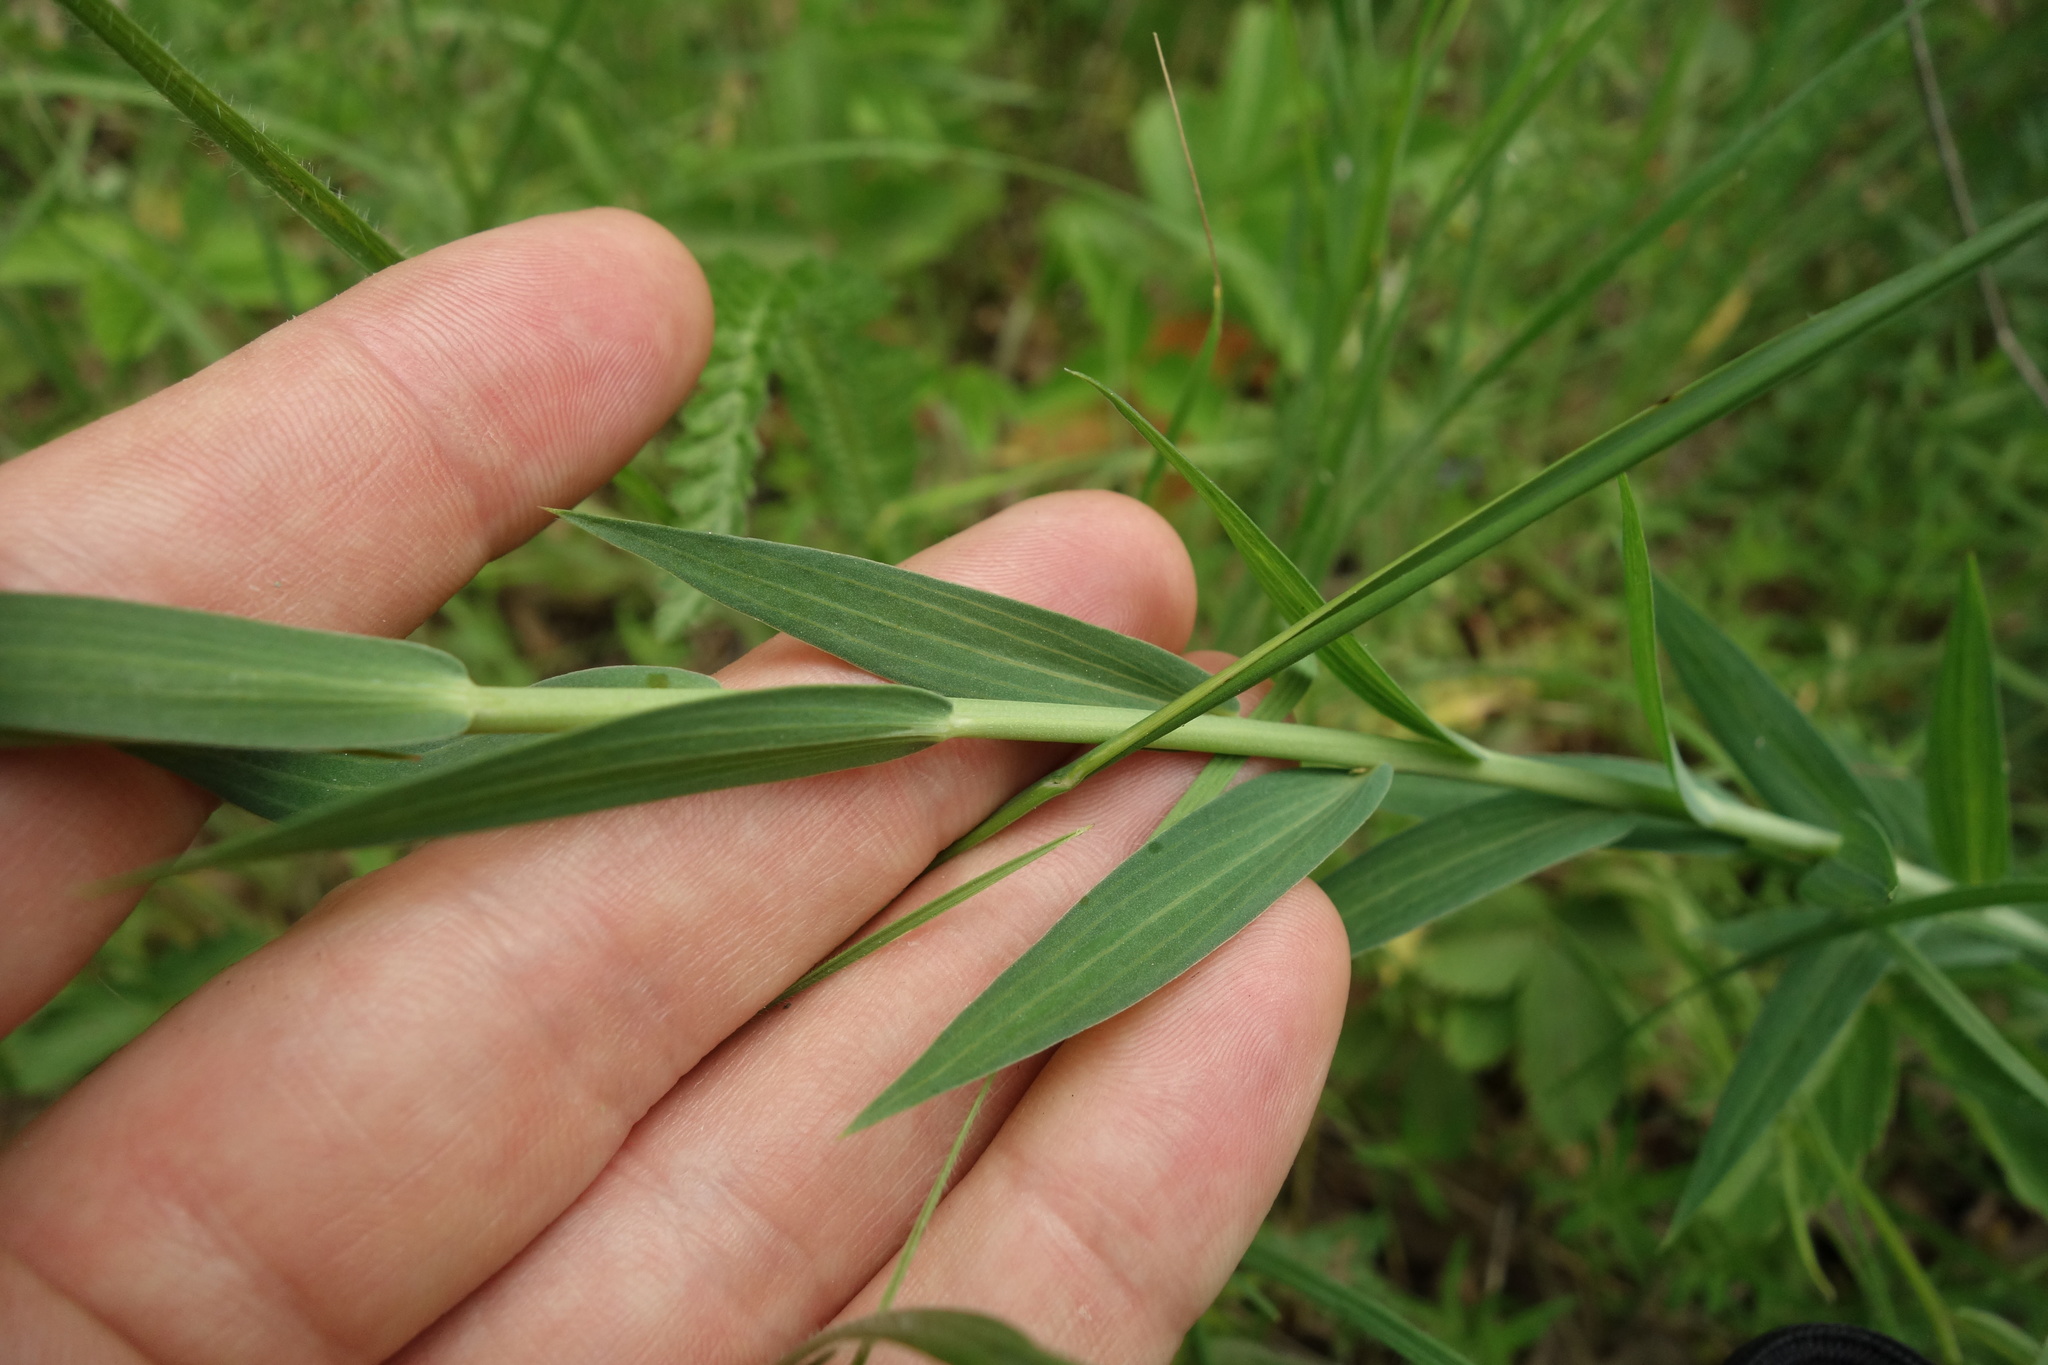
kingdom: Plantae
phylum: Tracheophyta
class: Magnoliopsida
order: Malpighiales
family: Linaceae
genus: Linum
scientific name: Linum nervosum
